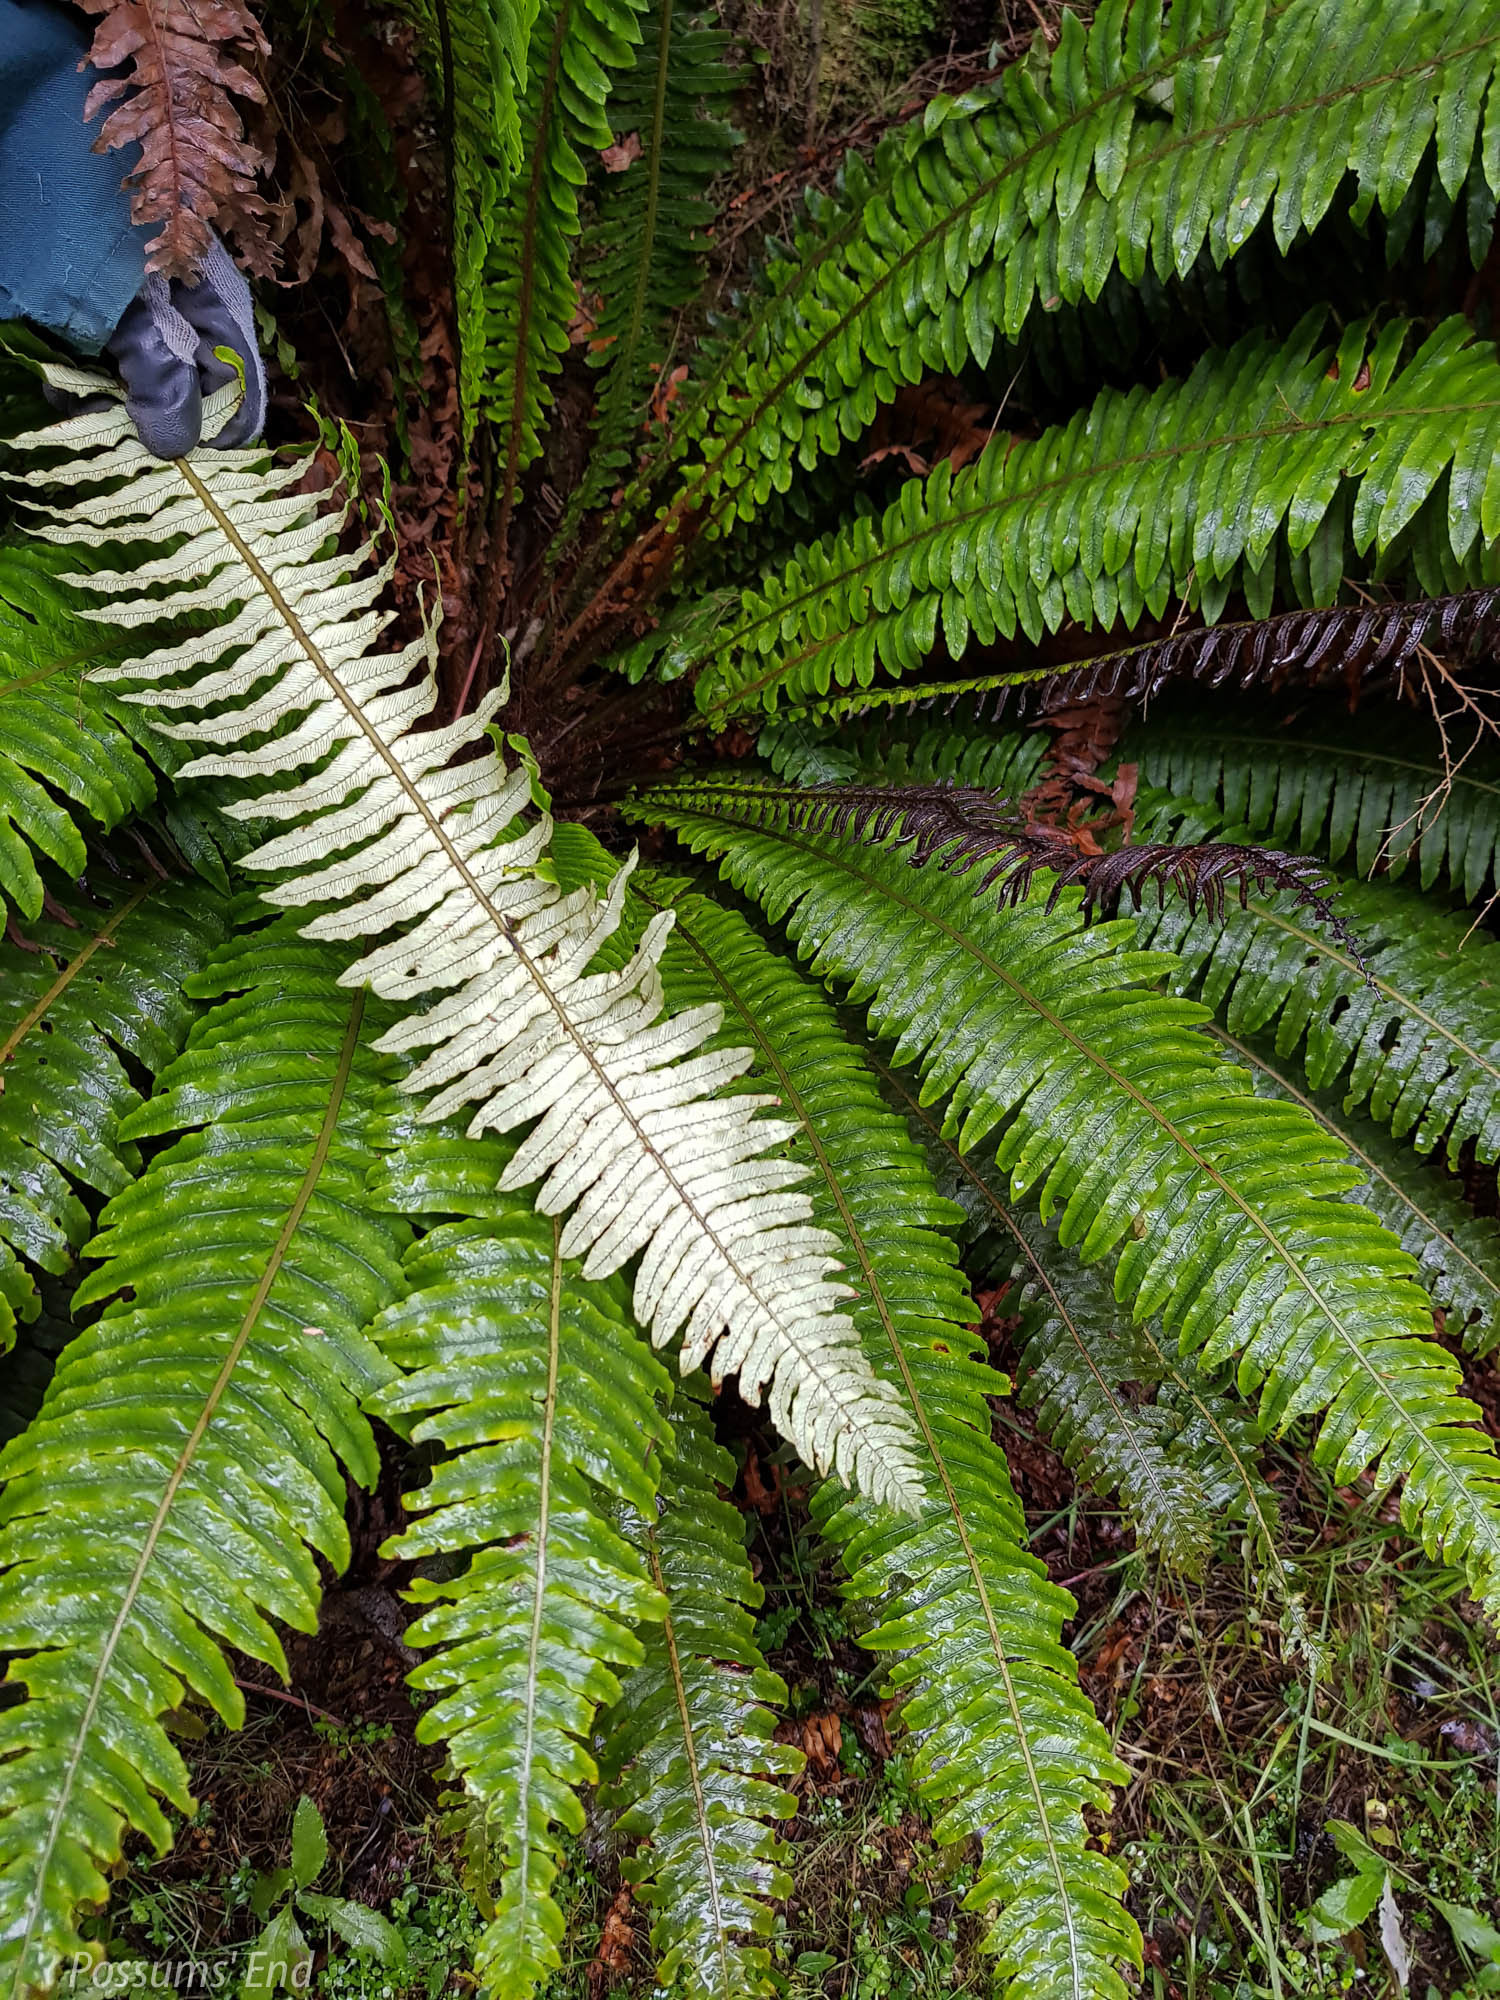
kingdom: Plantae
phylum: Tracheophyta
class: Polypodiopsida
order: Polypodiales
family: Blechnaceae
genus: Lomaria
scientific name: Lomaria discolor
